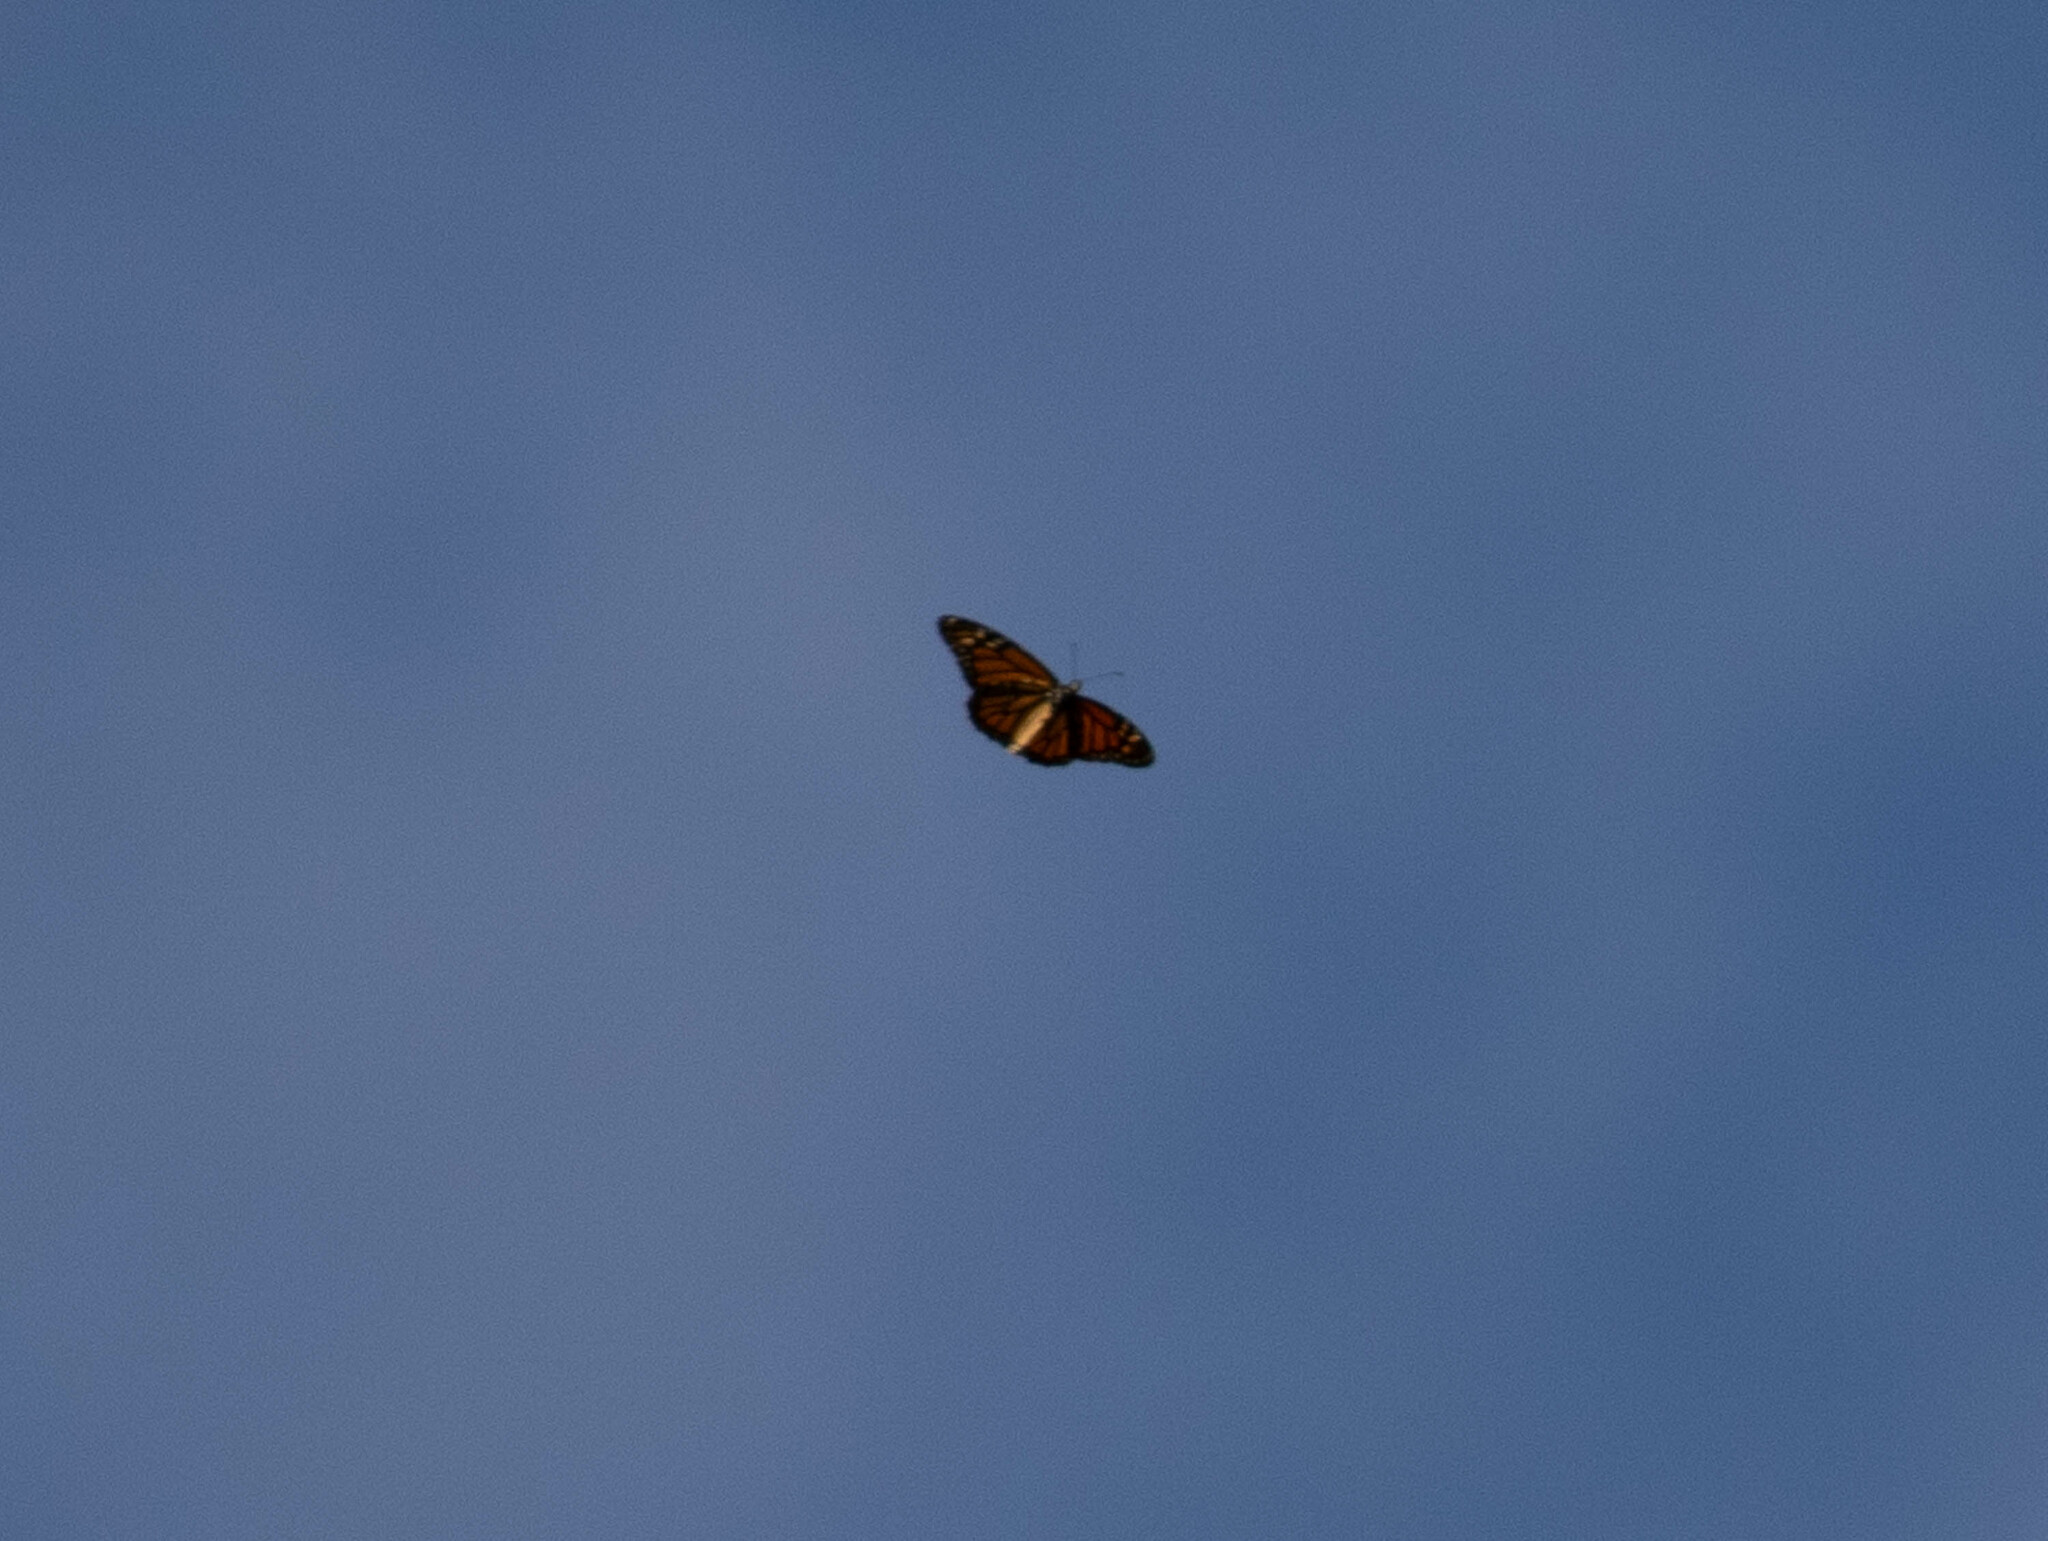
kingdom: Animalia
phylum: Arthropoda
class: Insecta
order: Lepidoptera
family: Nymphalidae
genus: Danaus
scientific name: Danaus plexippus
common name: Monarch
